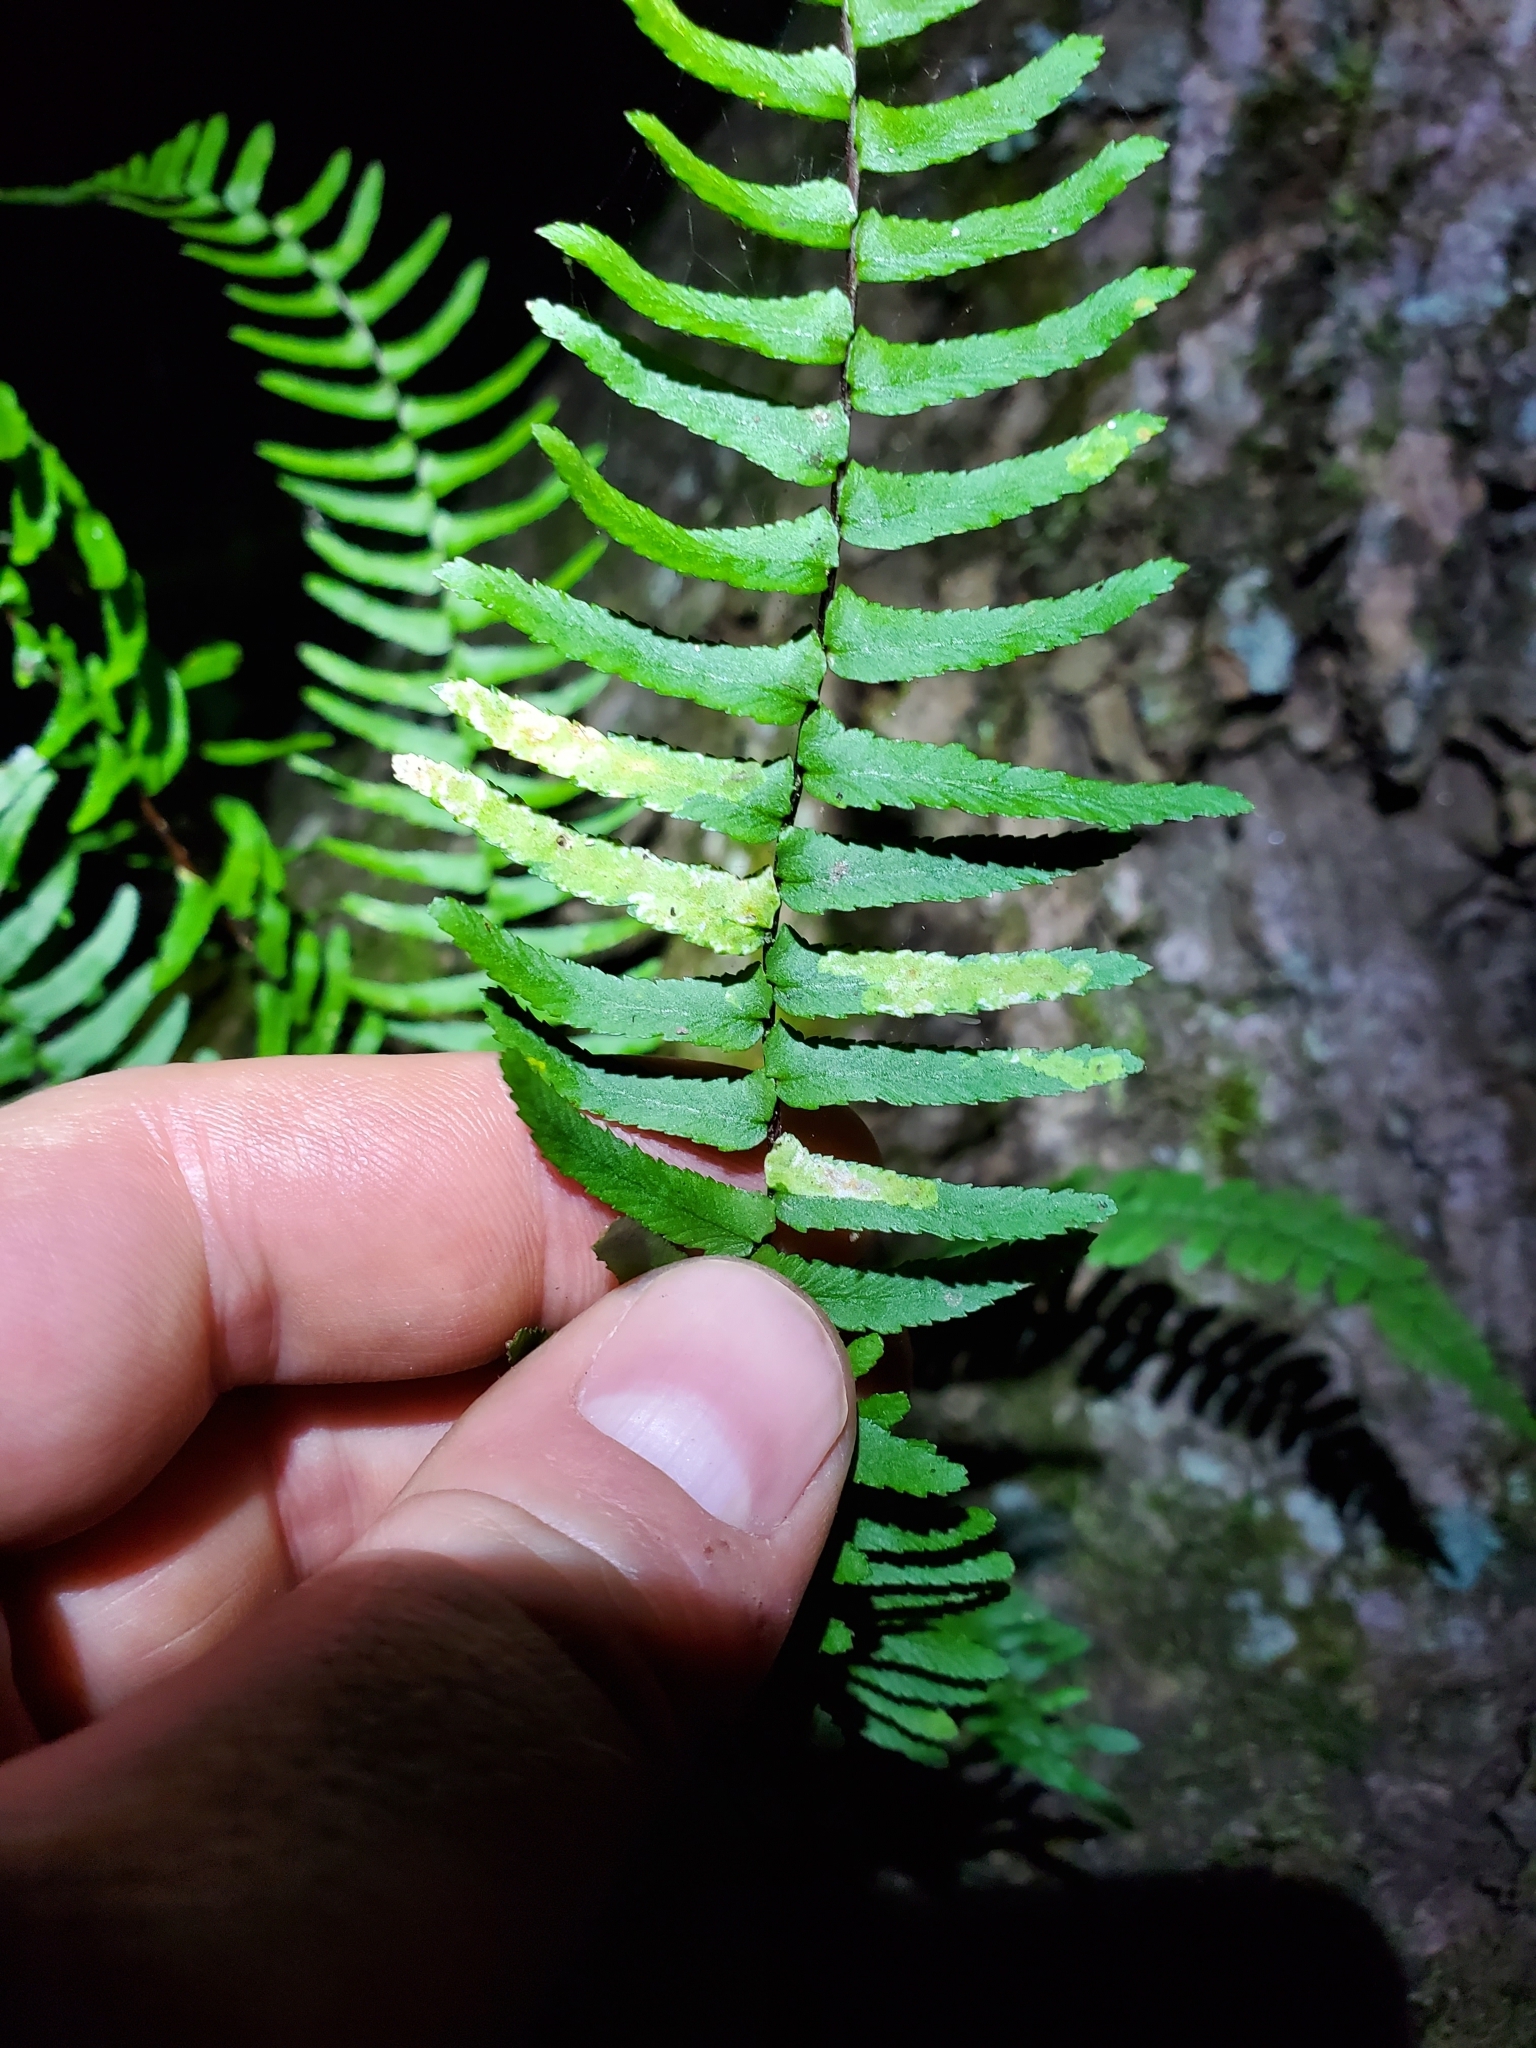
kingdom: Plantae
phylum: Tracheophyta
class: Polypodiopsida
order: Polypodiales
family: Aspleniaceae
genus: Asplenium
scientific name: Asplenium platyneuron
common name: Ebony spleenwort
